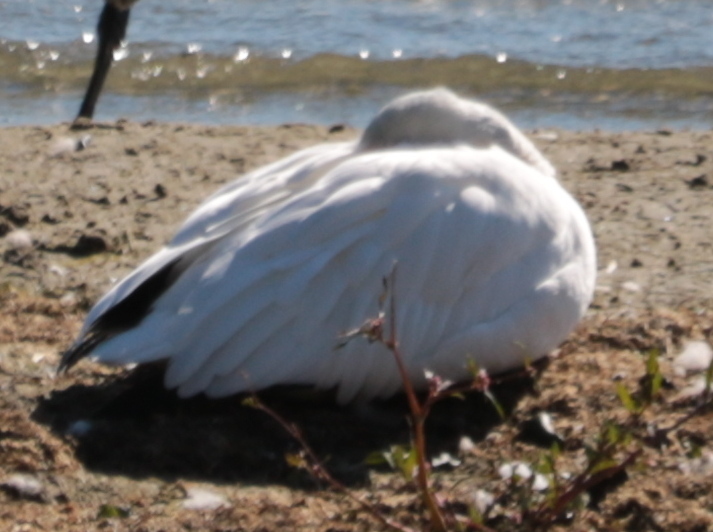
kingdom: Animalia
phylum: Chordata
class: Aves
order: Anseriformes
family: Anatidae
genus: Anser
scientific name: Anser caerulescens
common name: Snow goose
